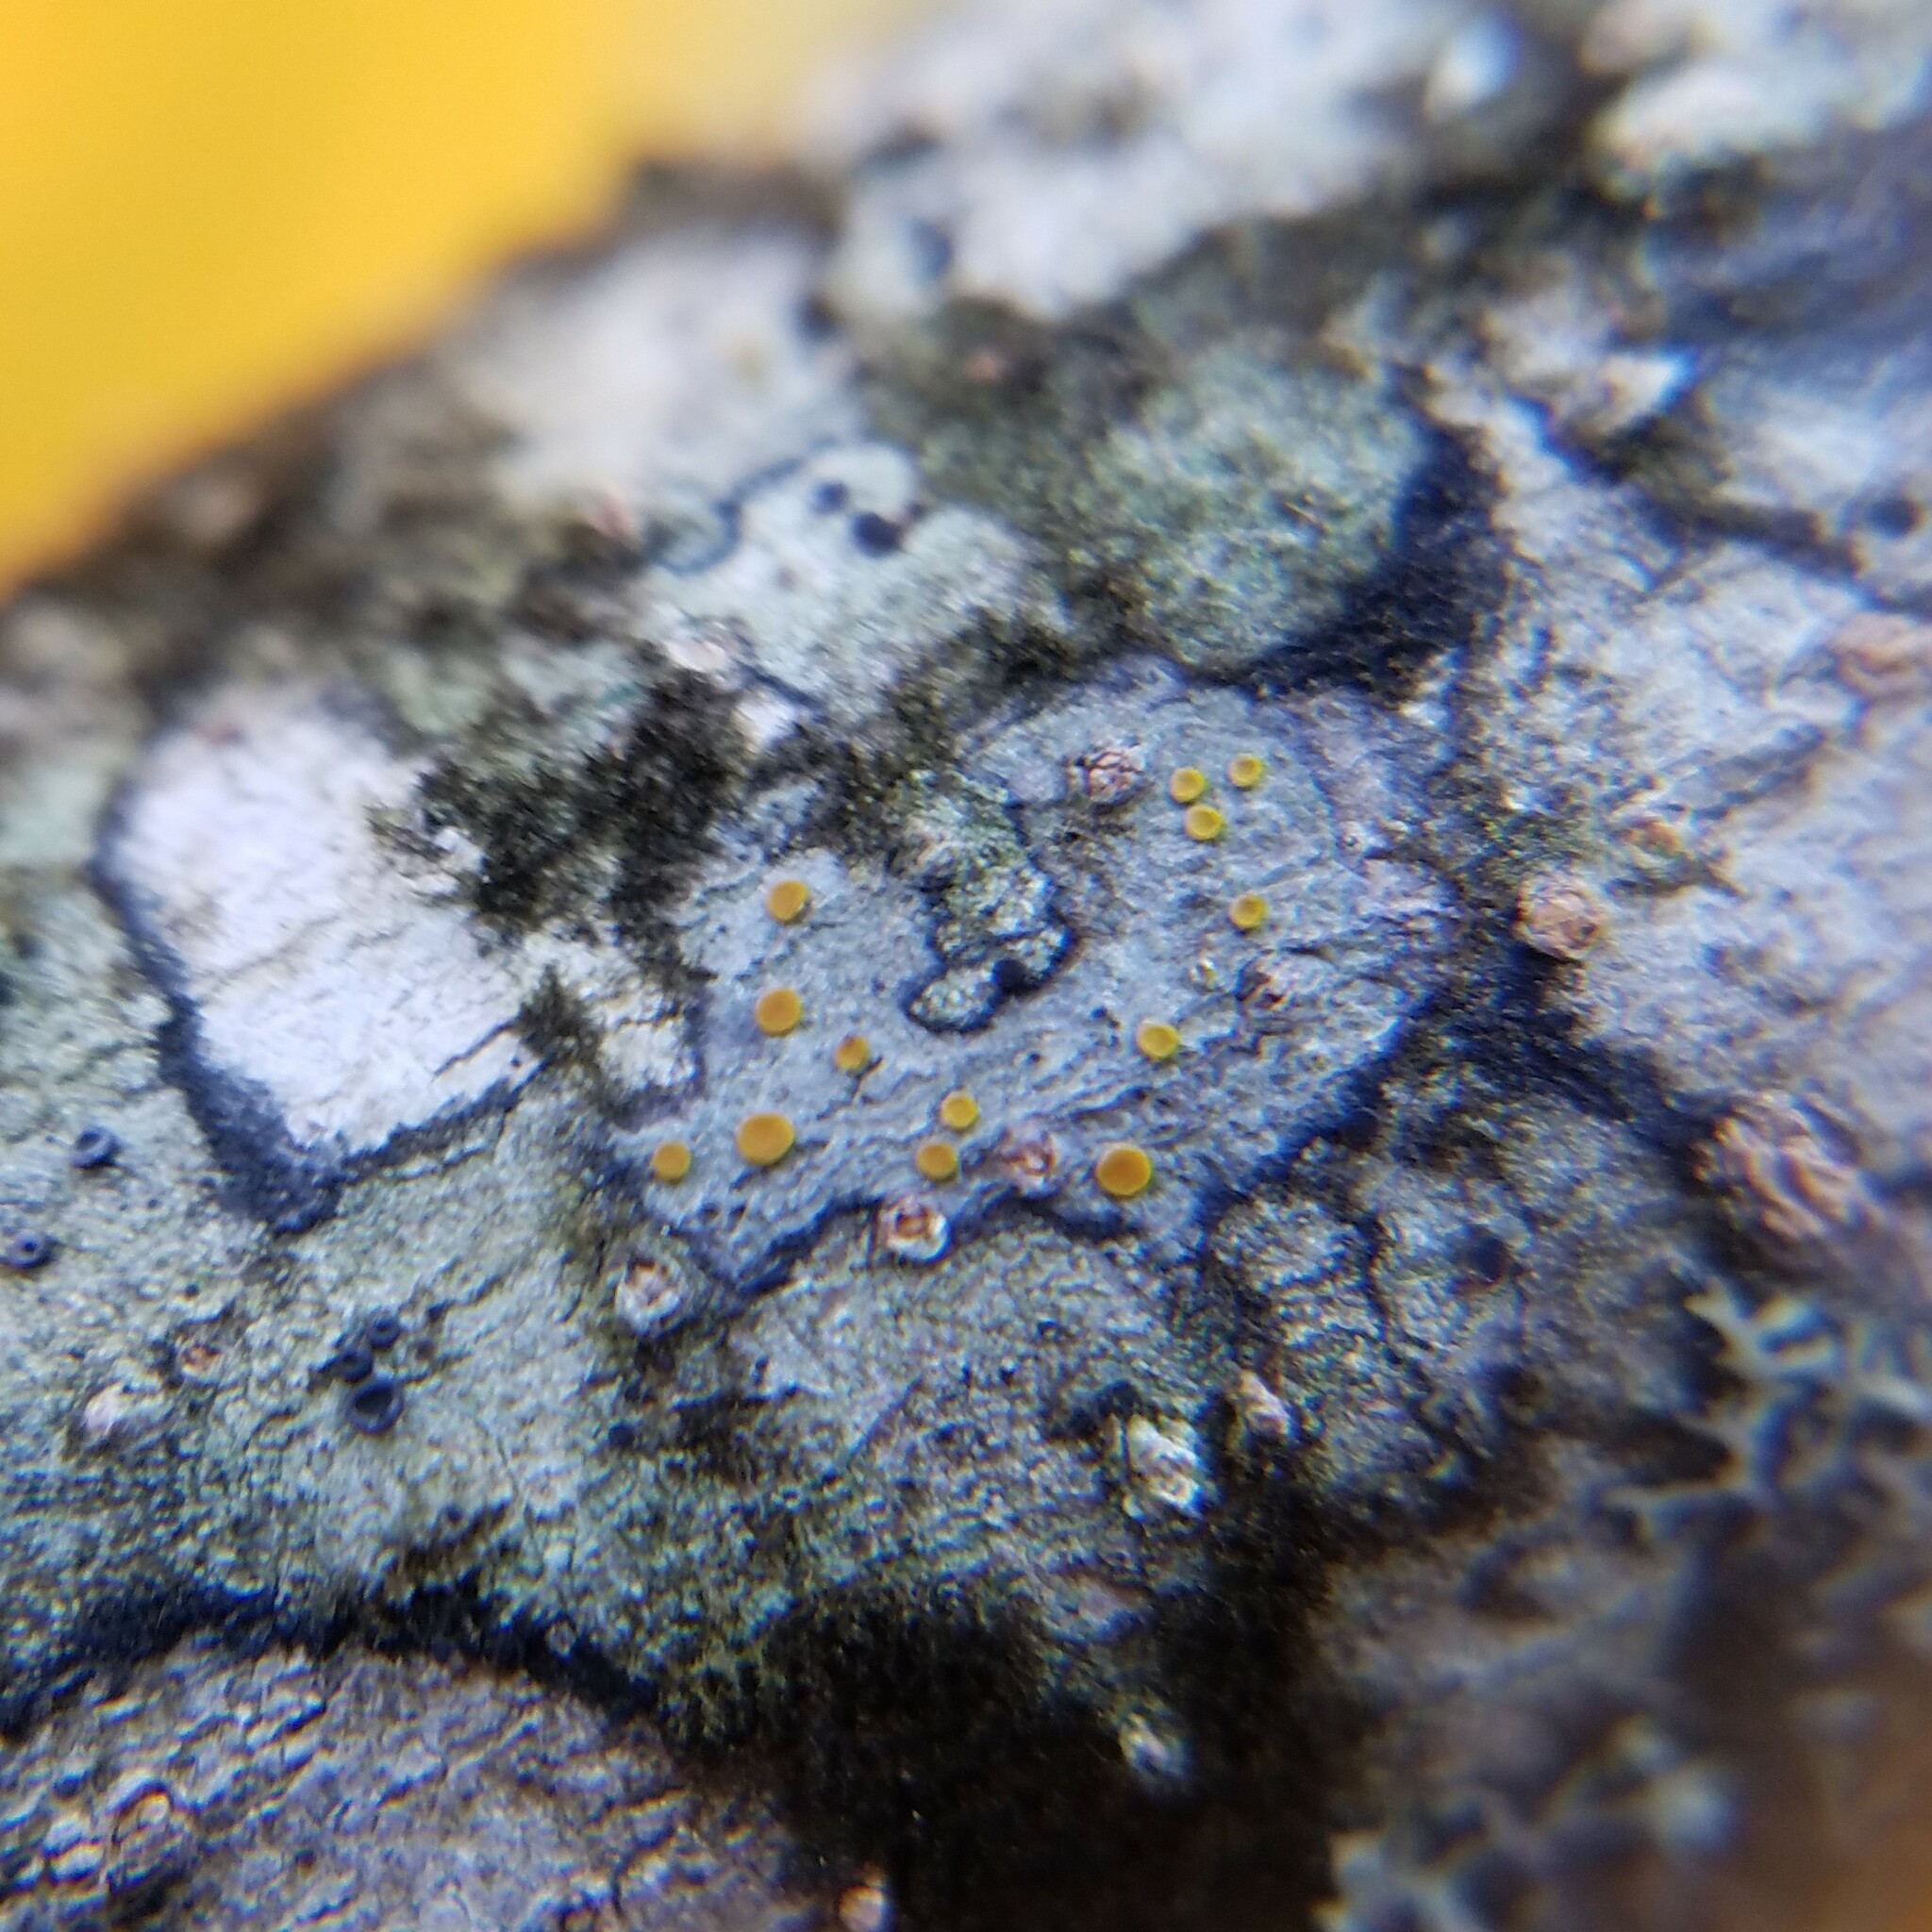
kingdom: Fungi
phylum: Ascomycota
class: Lecanoromycetes
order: Teloschistales
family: Teloschistaceae
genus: Caloplaca
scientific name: Caloplaca cerina
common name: Gray-rimmed firedot lichen
